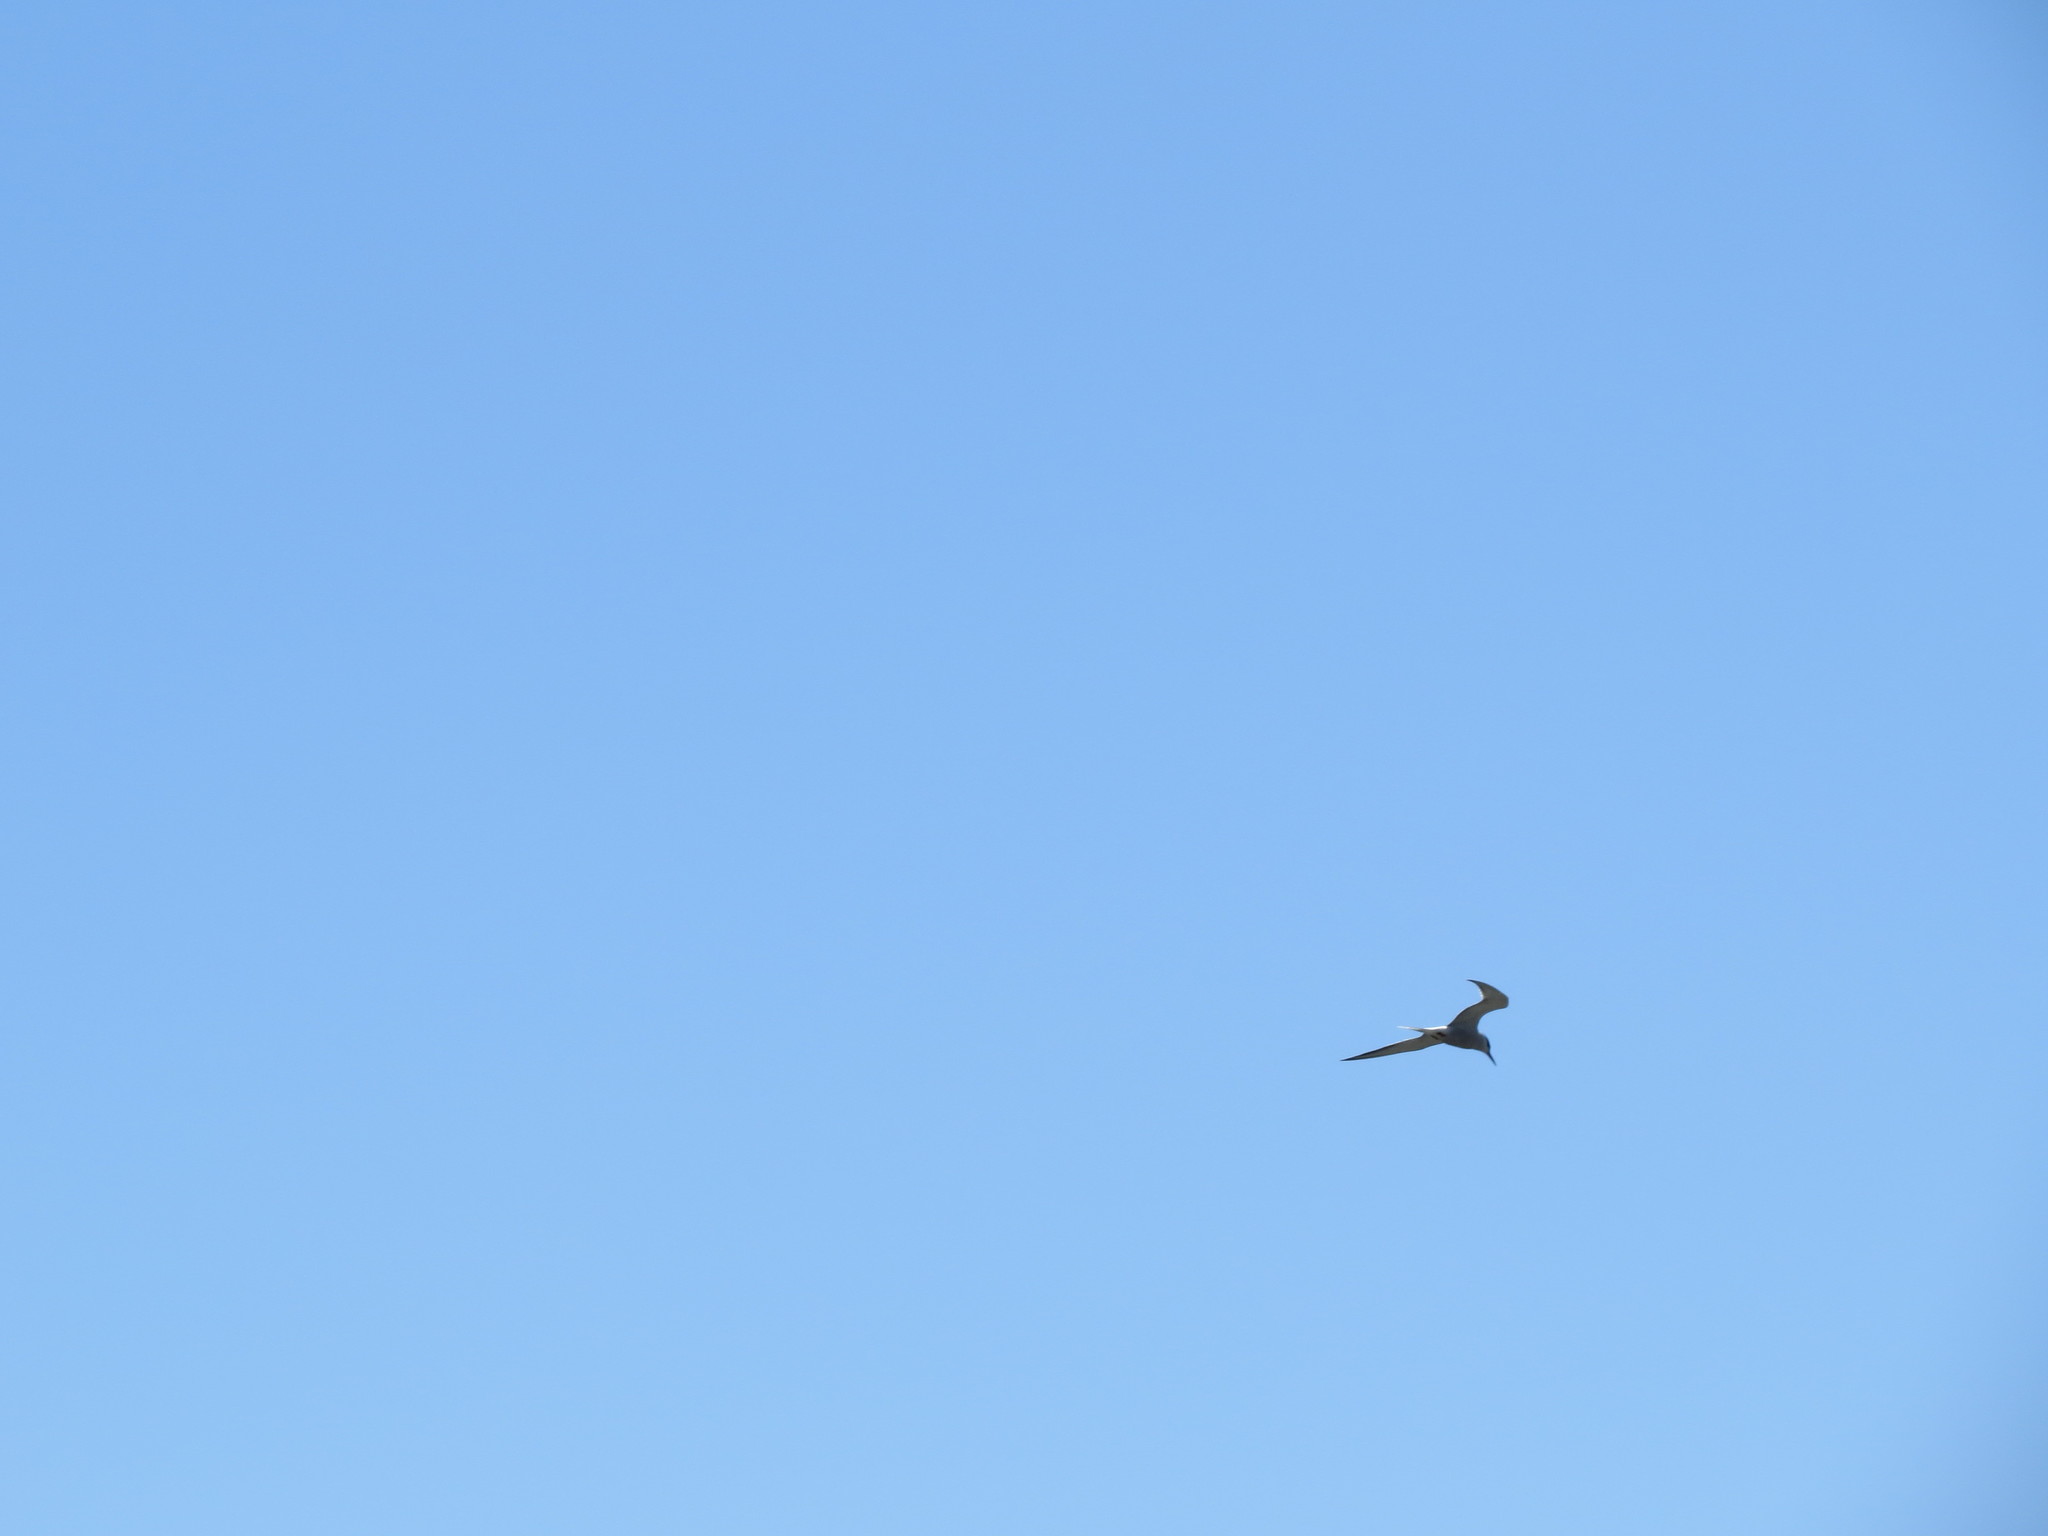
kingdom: Animalia
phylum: Chordata
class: Aves
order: Charadriiformes
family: Laridae
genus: Sterna
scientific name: Sterna hirundo
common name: Common tern
